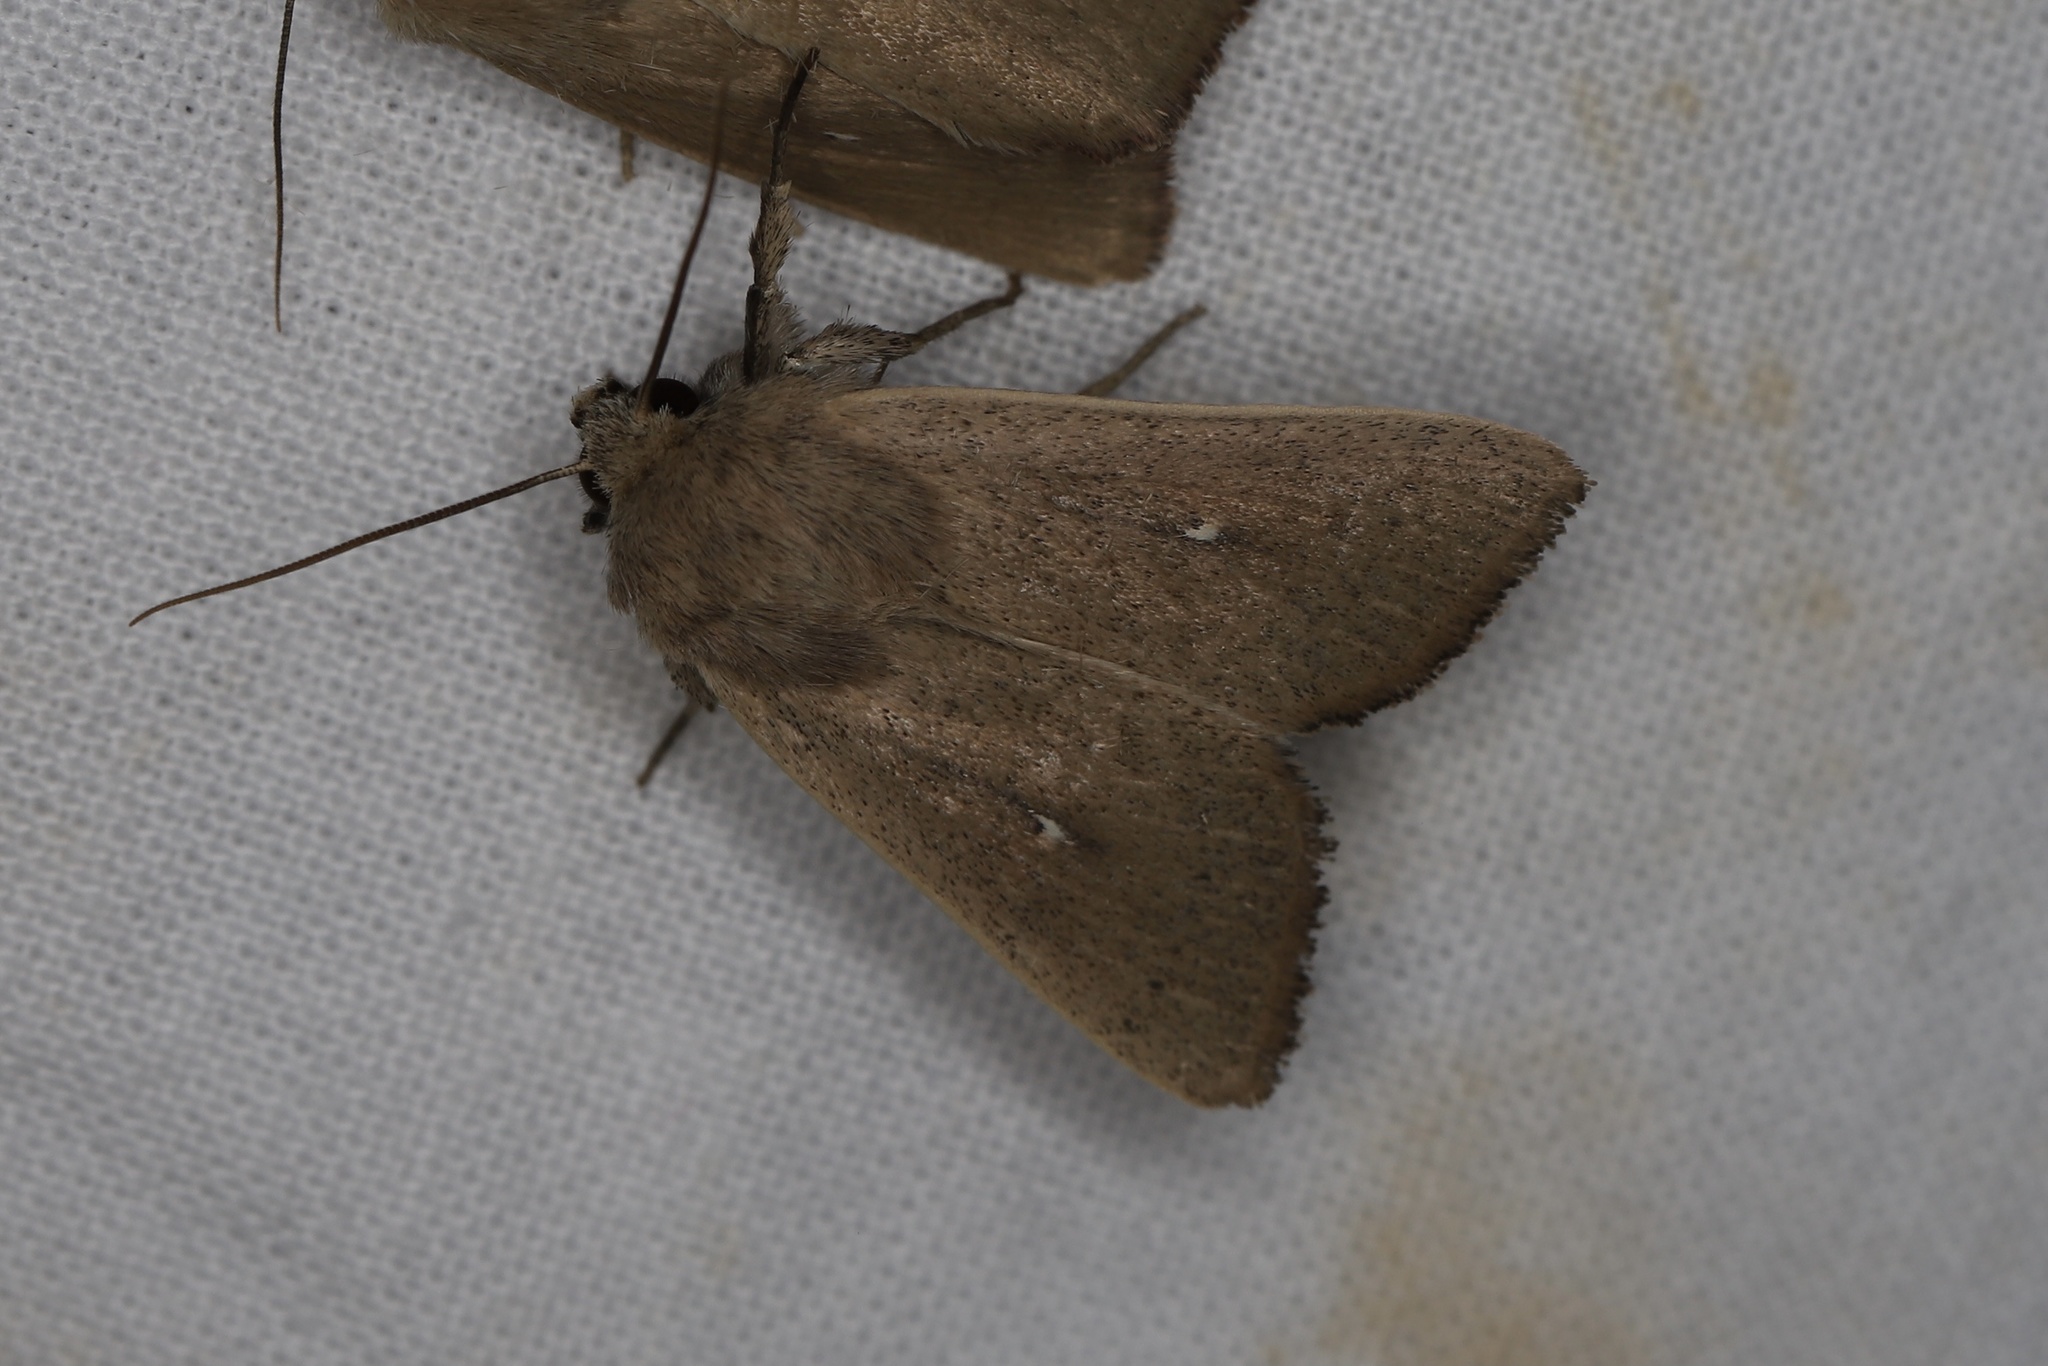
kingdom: Animalia
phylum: Arthropoda
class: Insecta
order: Lepidoptera
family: Noctuidae
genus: Mythimna
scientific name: Mythimna sicula
